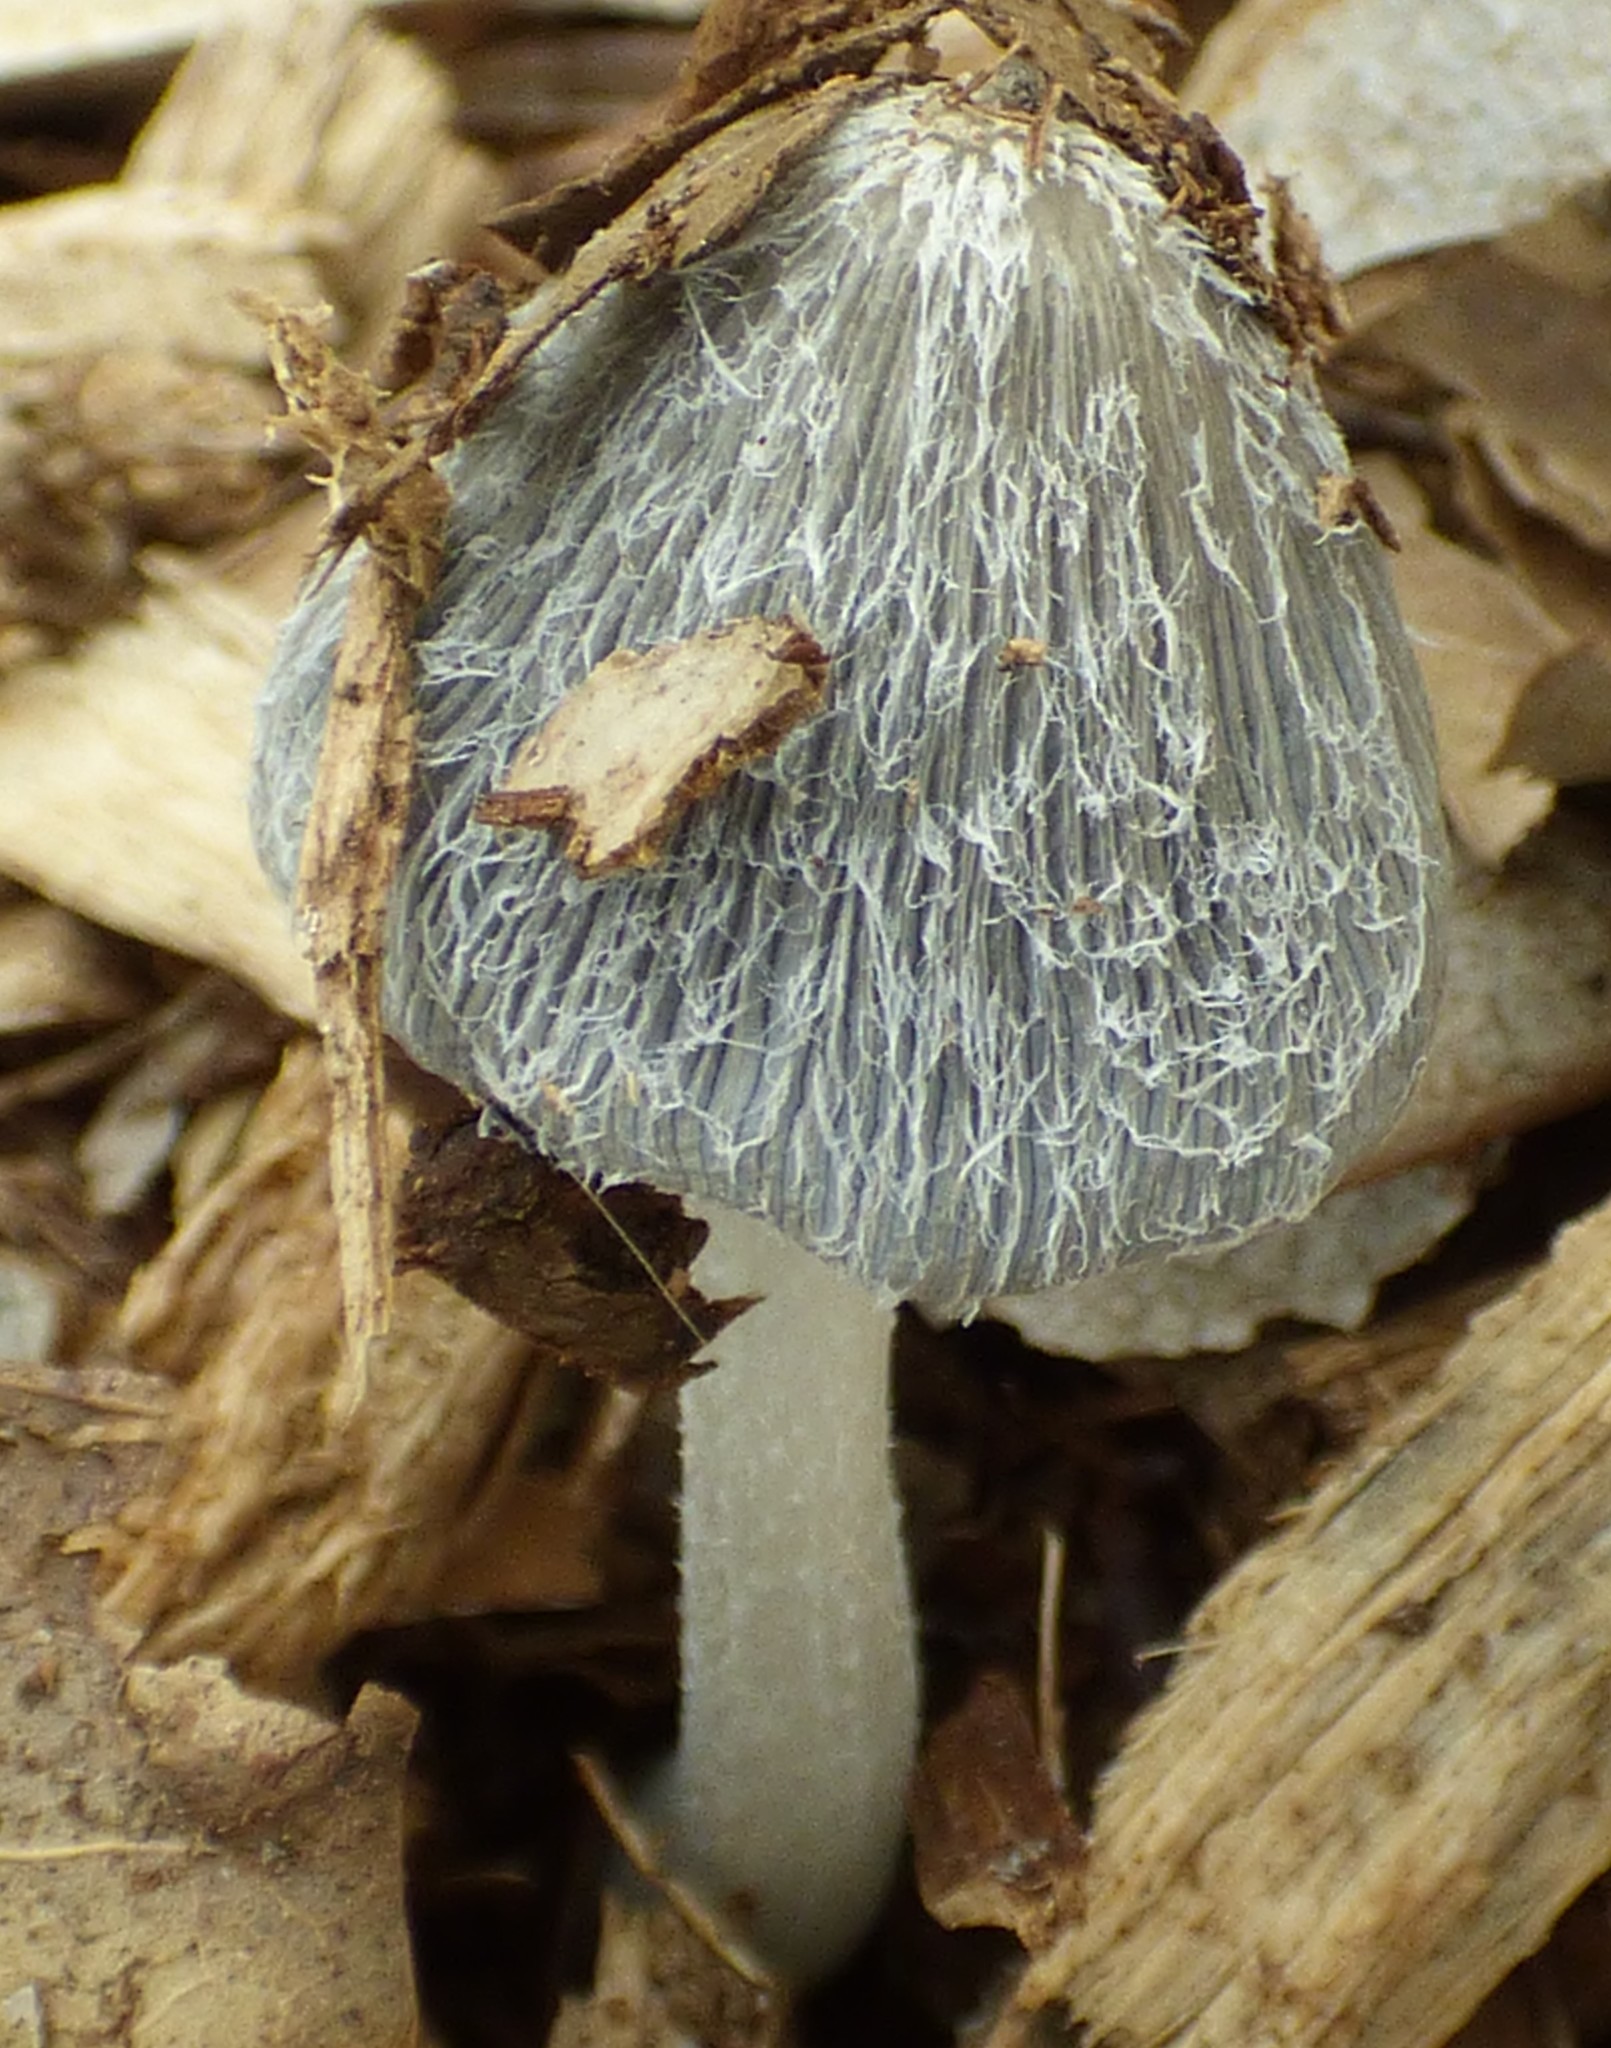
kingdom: Fungi
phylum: Basidiomycota
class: Agaricomycetes
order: Agaricales
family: Psathyrellaceae
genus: Coprinopsis
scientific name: Coprinopsis lagopus
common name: Hare'sfoot inkcap
